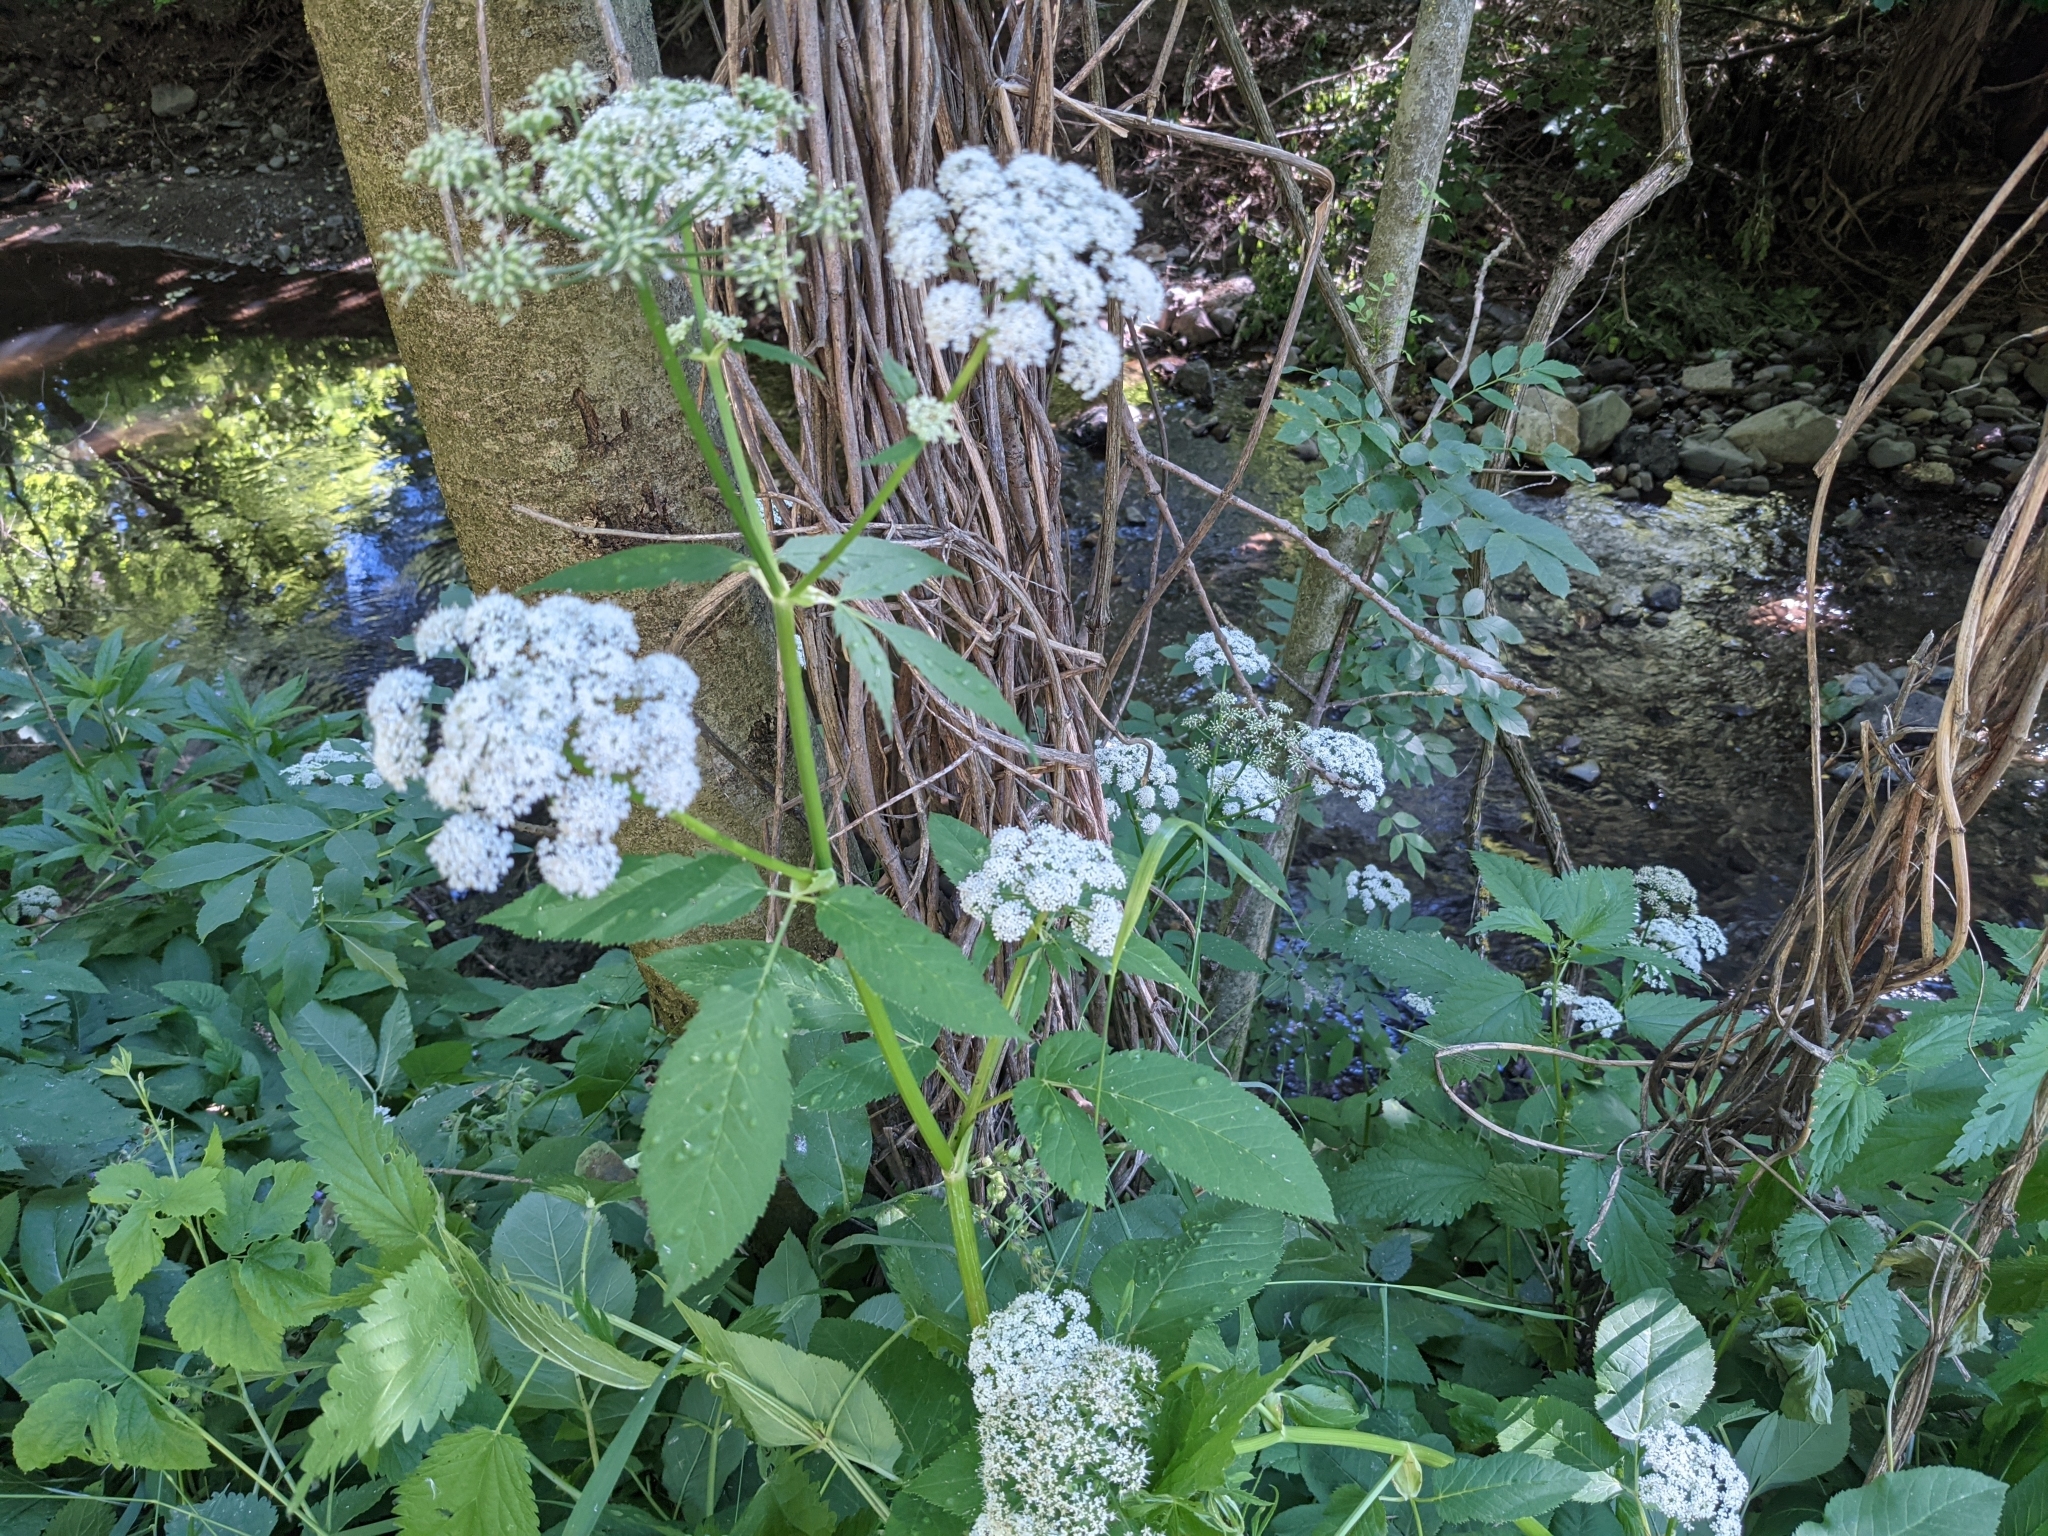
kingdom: Plantae
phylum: Tracheophyta
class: Magnoliopsida
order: Apiales
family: Apiaceae
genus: Aegopodium
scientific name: Aegopodium podagraria
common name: Ground-elder
